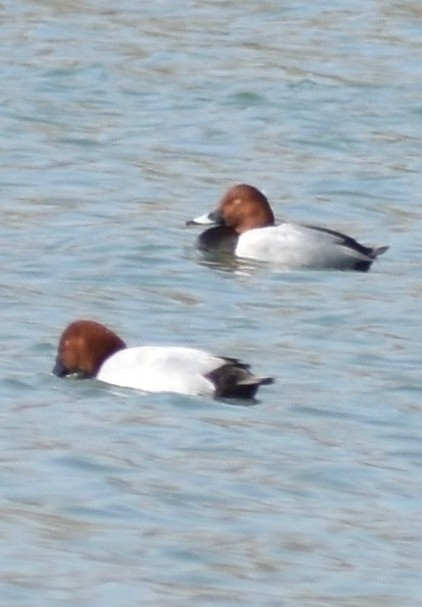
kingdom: Animalia
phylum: Chordata
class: Aves
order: Anseriformes
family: Anatidae
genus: Aythya
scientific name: Aythya ferina
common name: Common pochard
